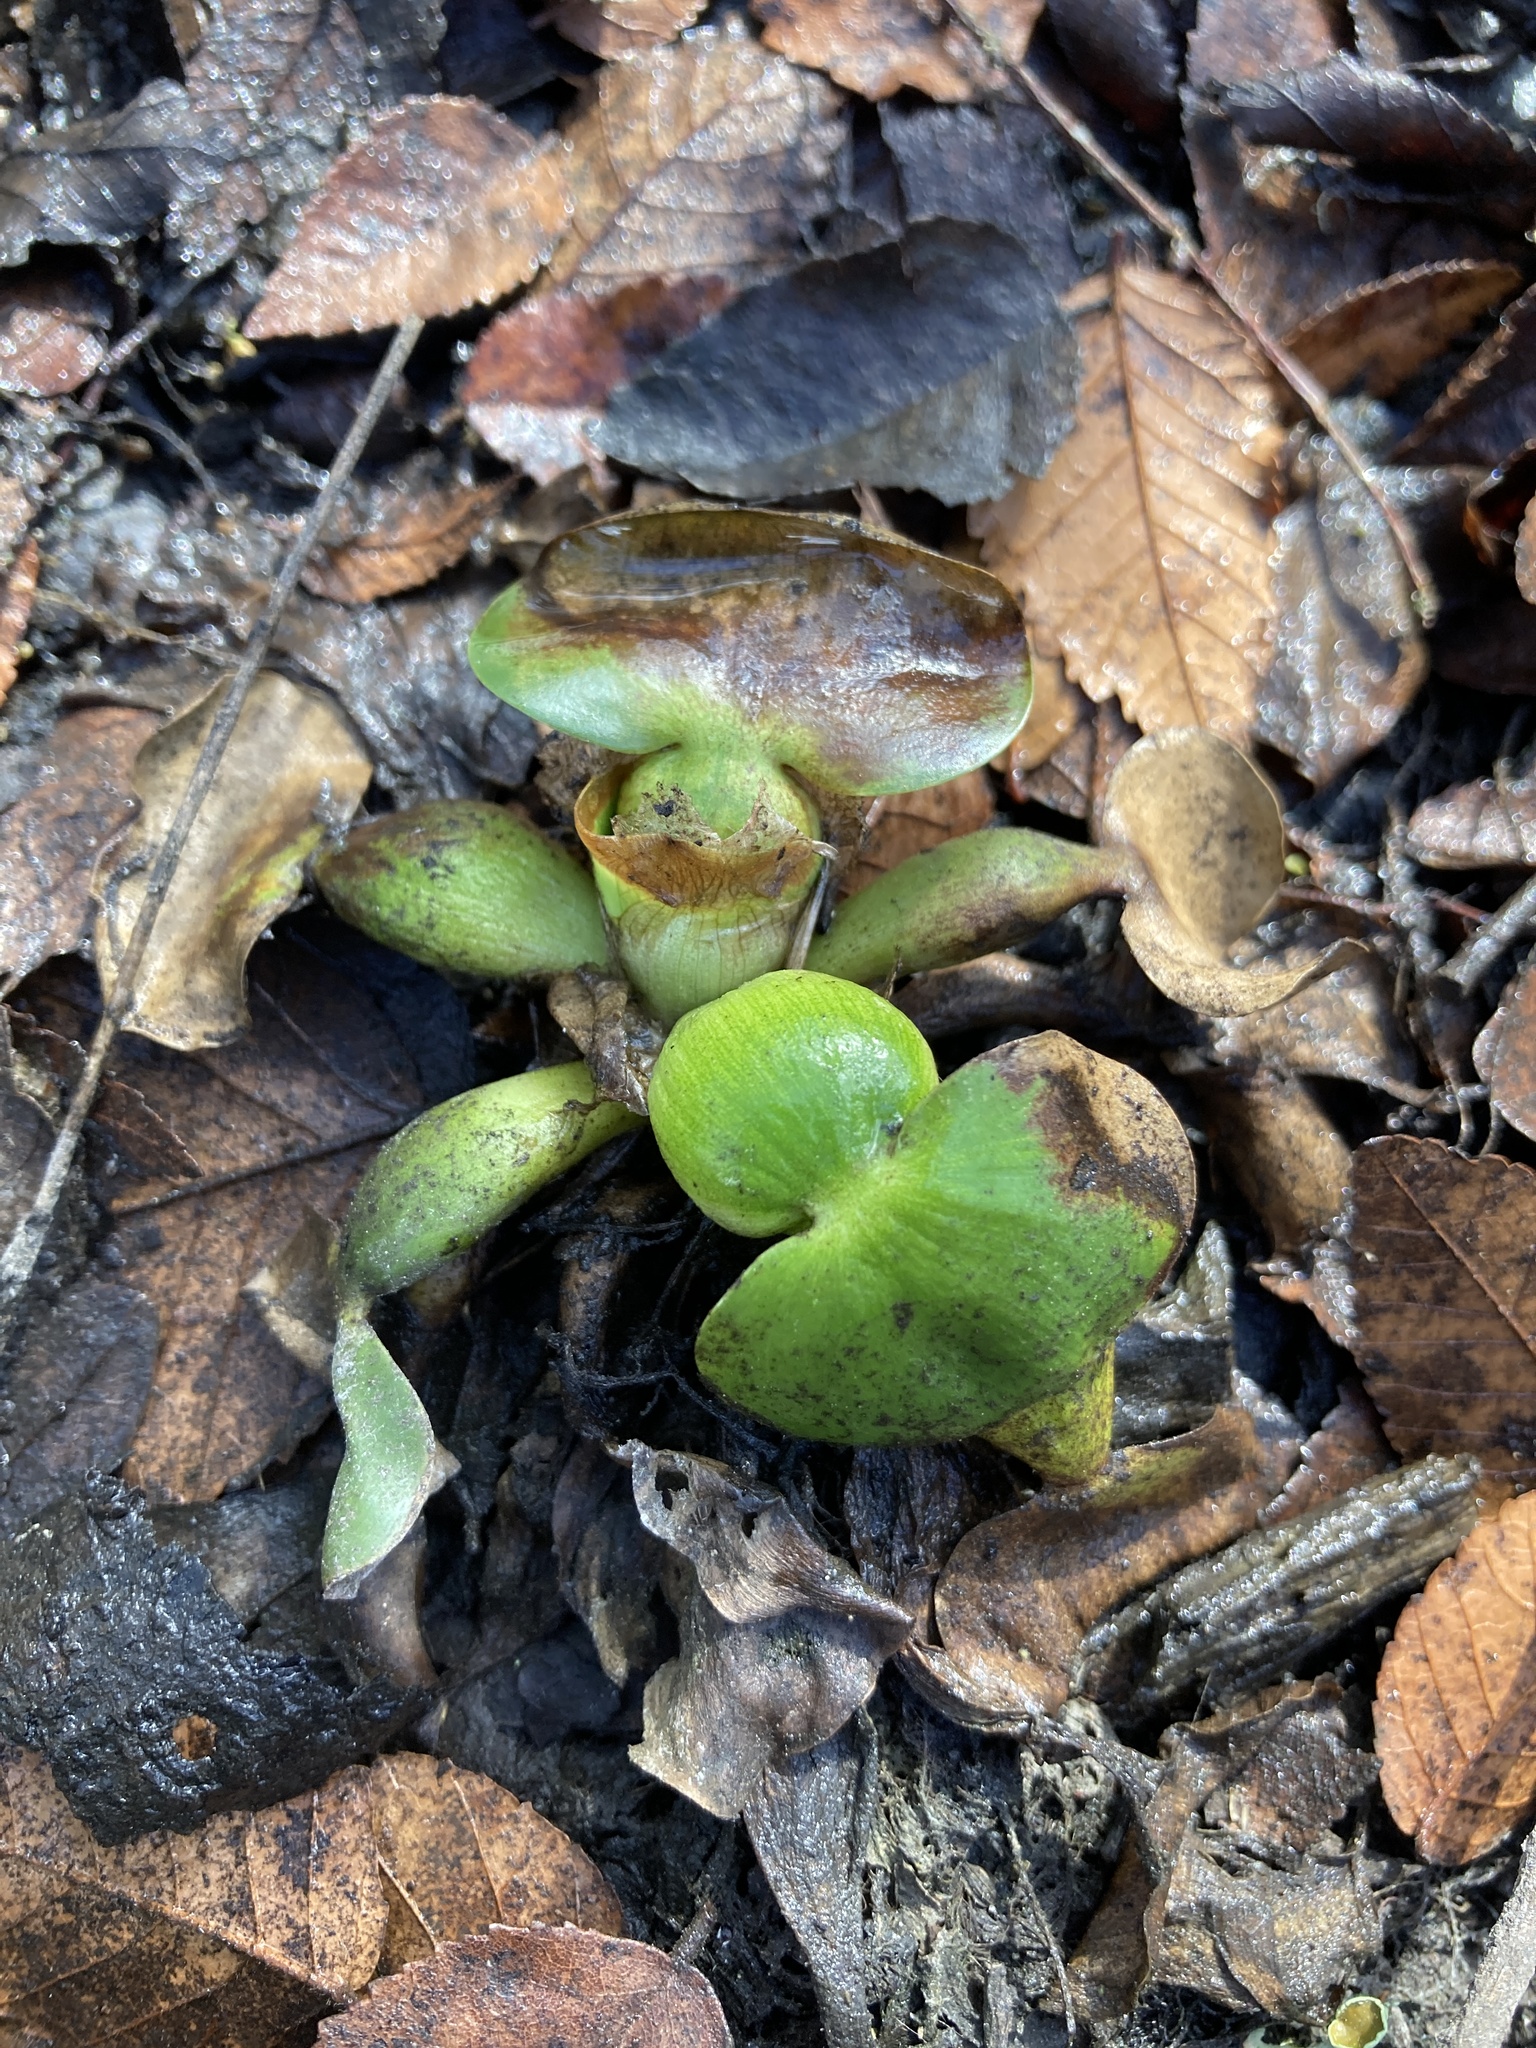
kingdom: Plantae
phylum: Tracheophyta
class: Liliopsida
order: Commelinales
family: Pontederiaceae
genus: Pontederia
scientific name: Pontederia crassipes
